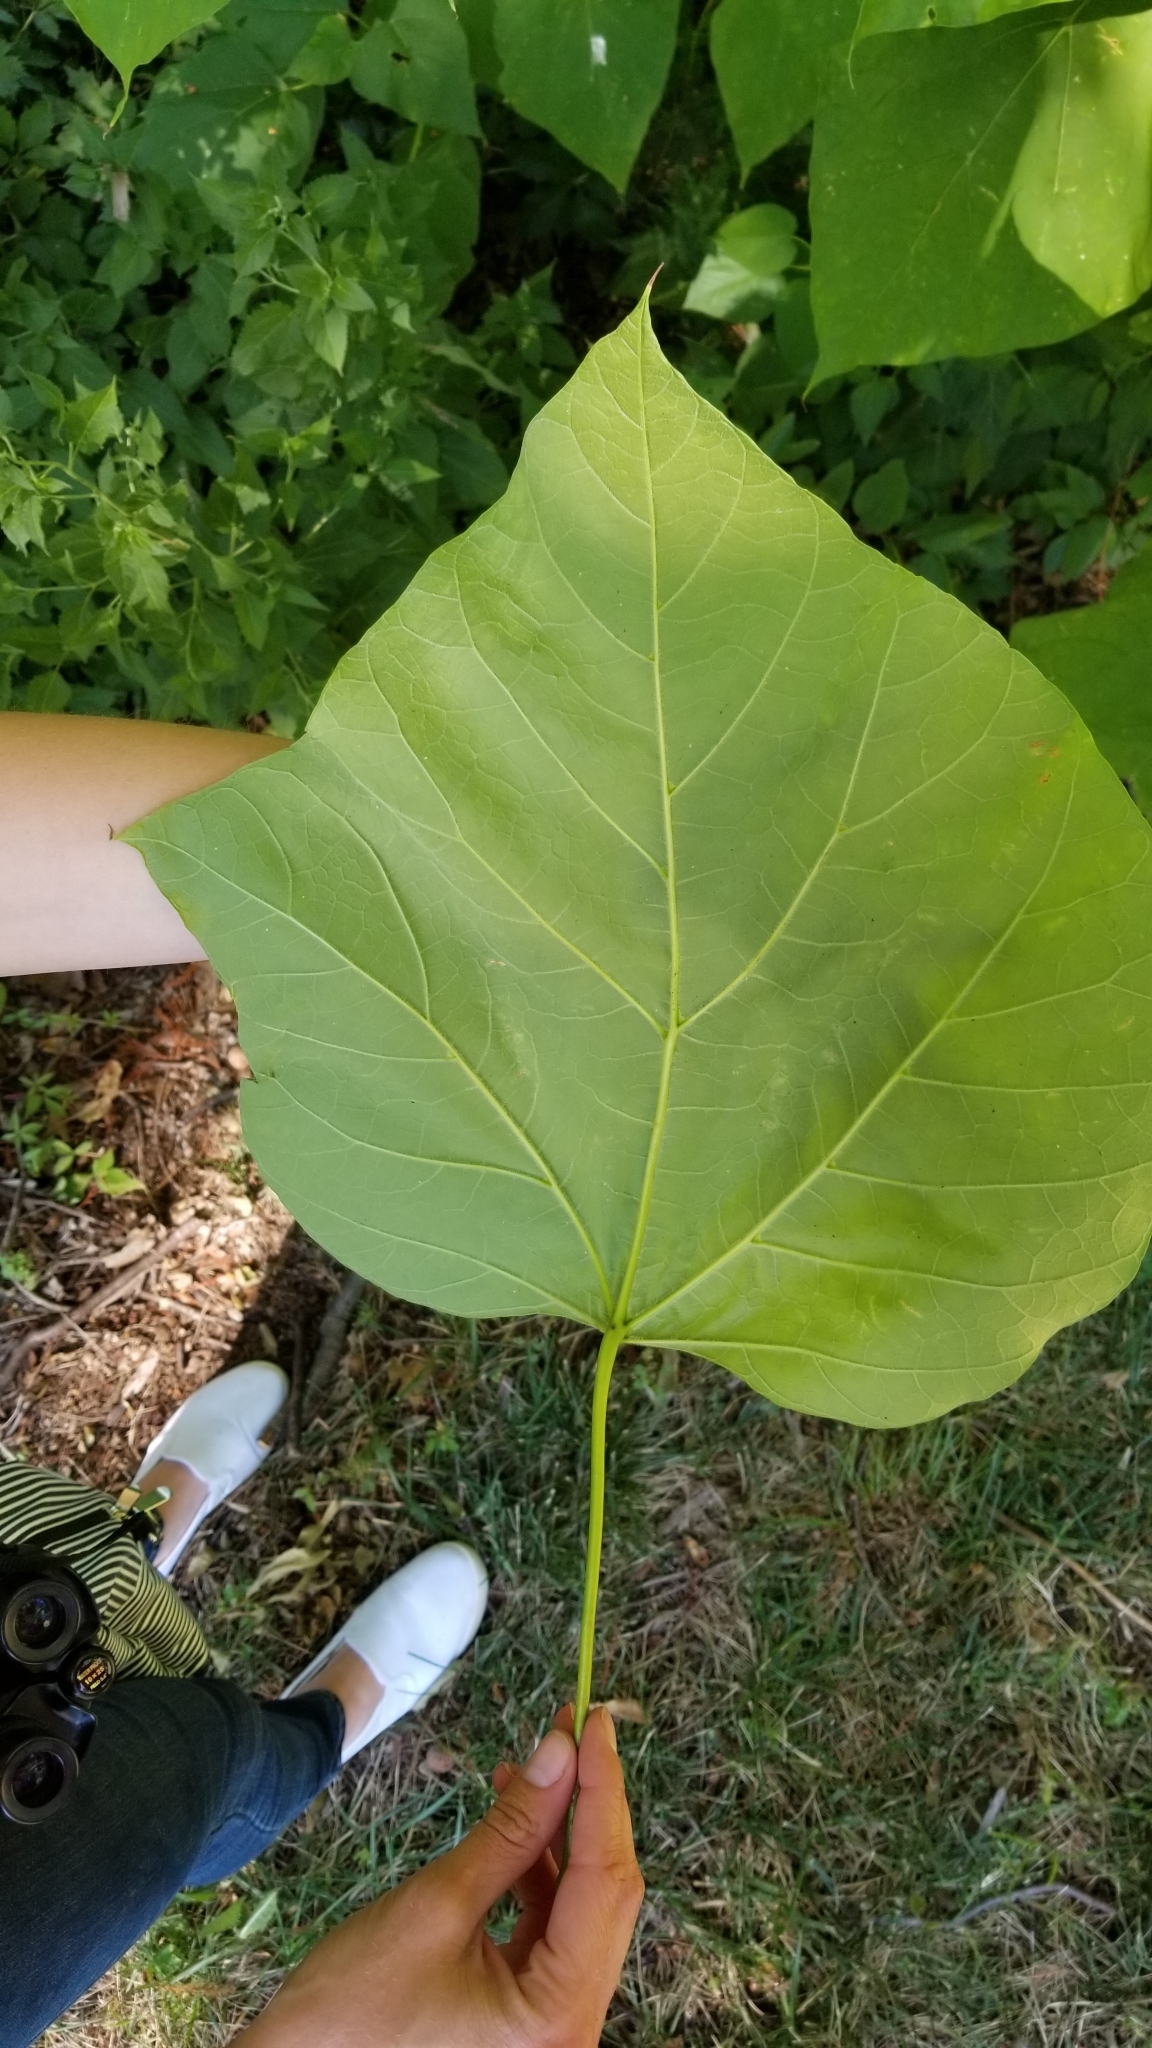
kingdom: Plantae
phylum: Tracheophyta
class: Magnoliopsida
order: Lamiales
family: Paulowniaceae
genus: Paulownia
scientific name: Paulownia tomentosa
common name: Foxglove-tree
